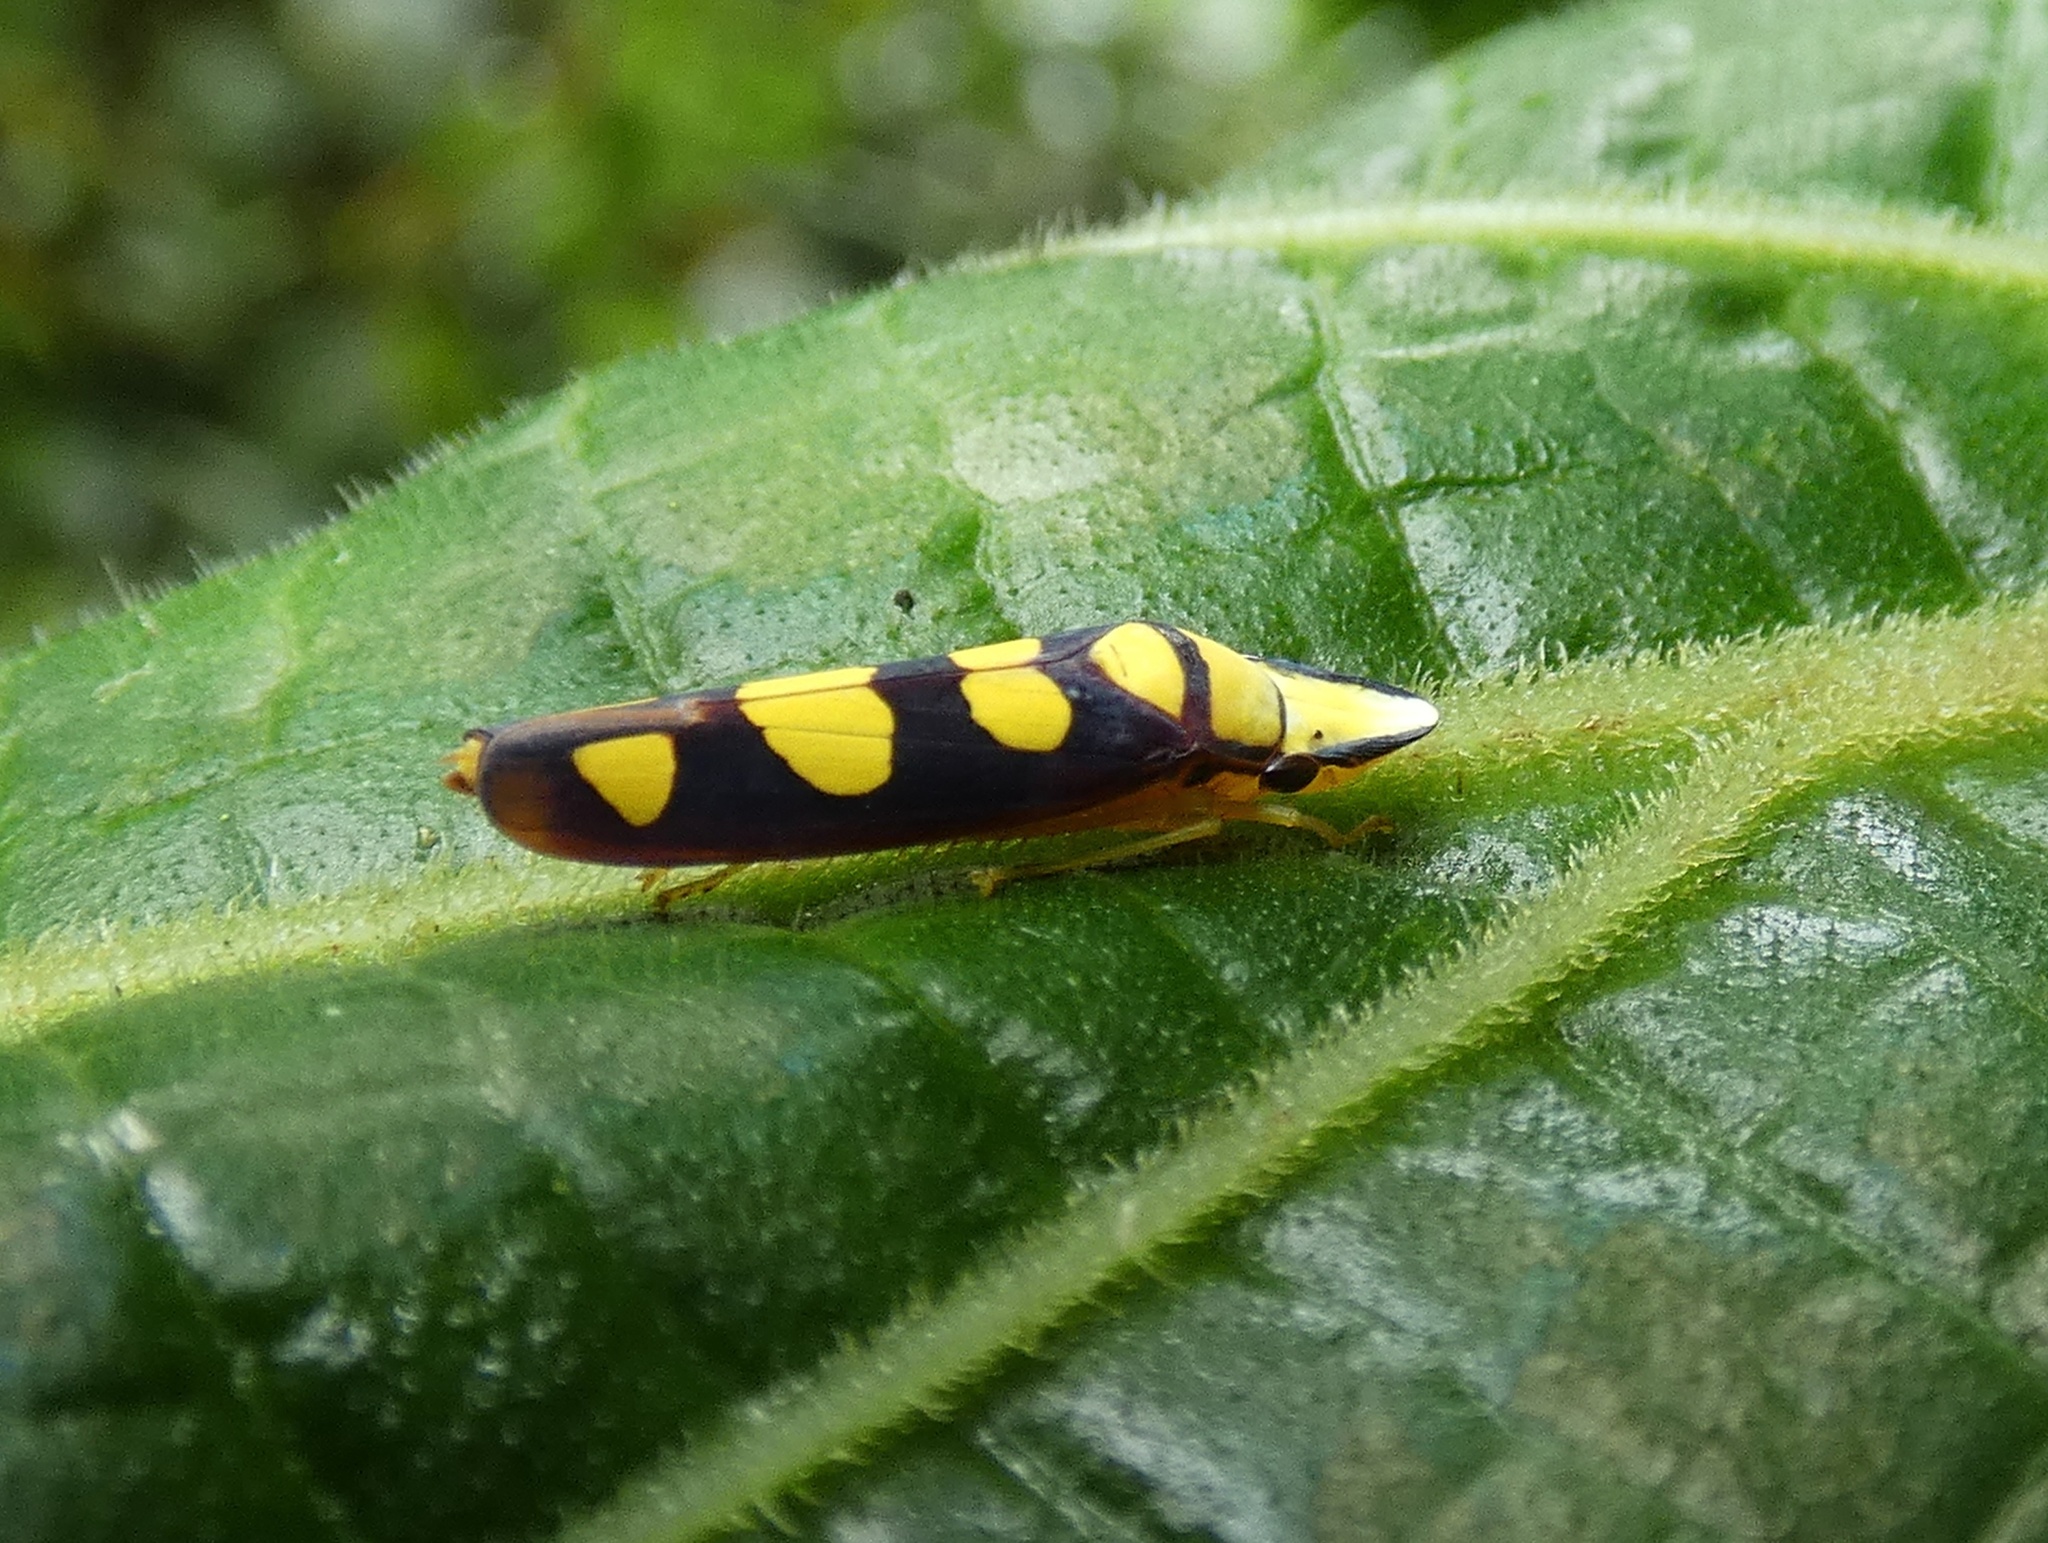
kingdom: Animalia
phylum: Arthropoda
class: Insecta
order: Hemiptera
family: Cicadellidae
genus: Platygonia
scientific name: Platygonia spatulata
